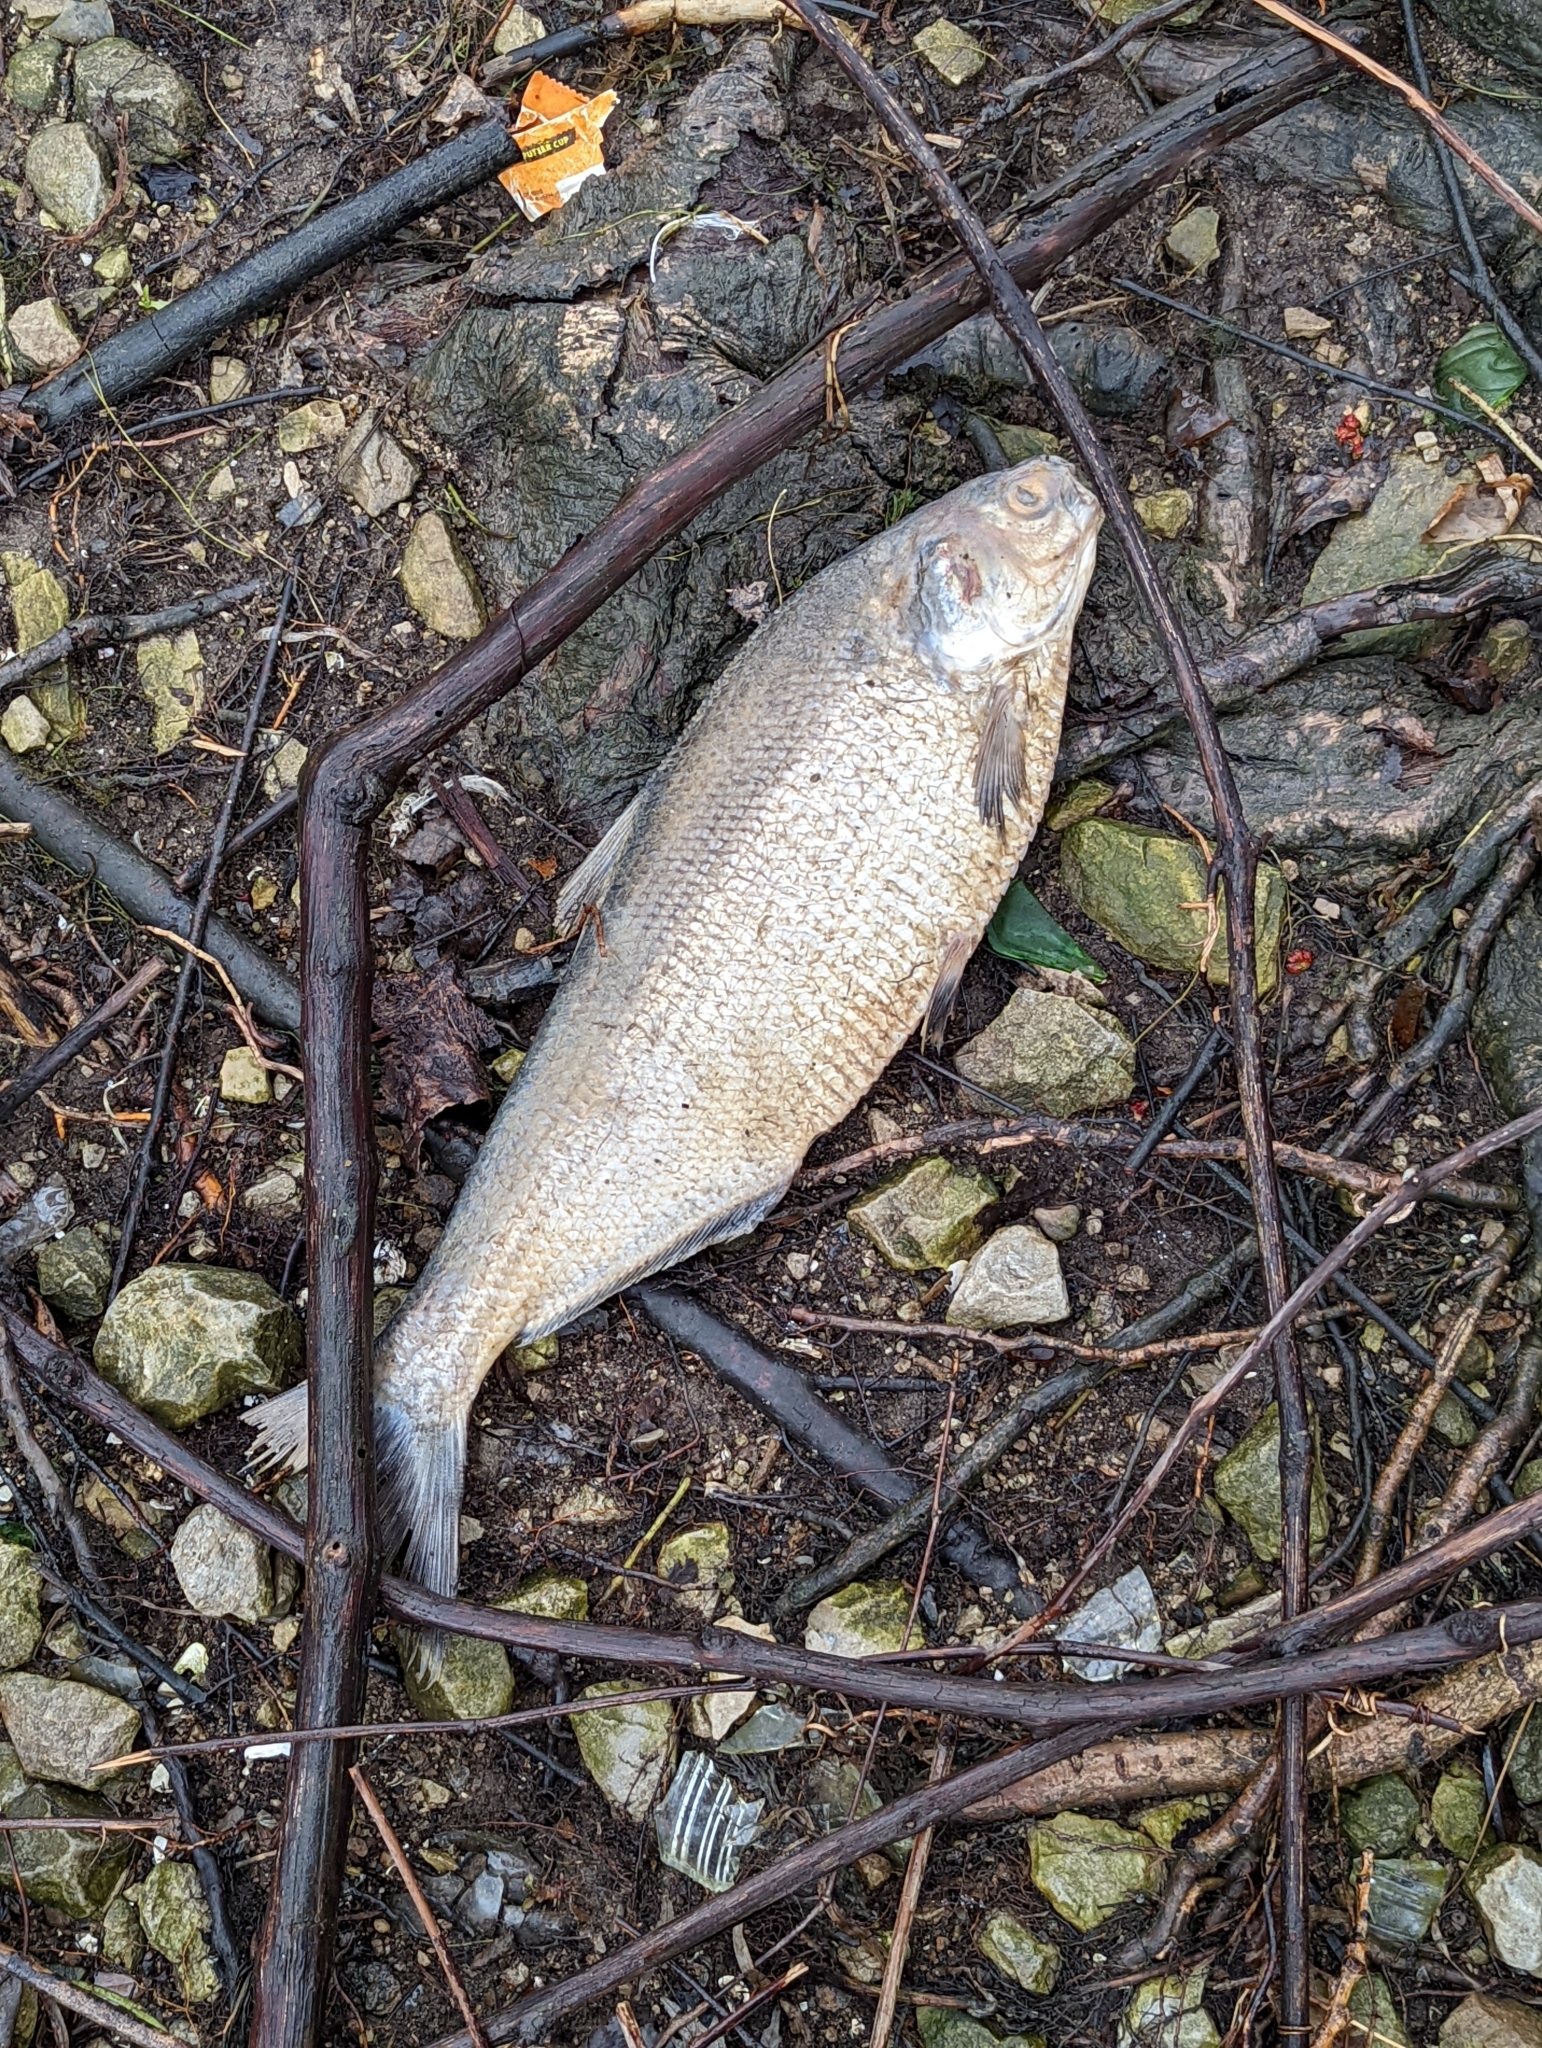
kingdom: Animalia
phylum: Chordata
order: Clupeiformes
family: Clupeidae
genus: Dorosoma
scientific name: Dorosoma cepedianum
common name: Gizzard shad
